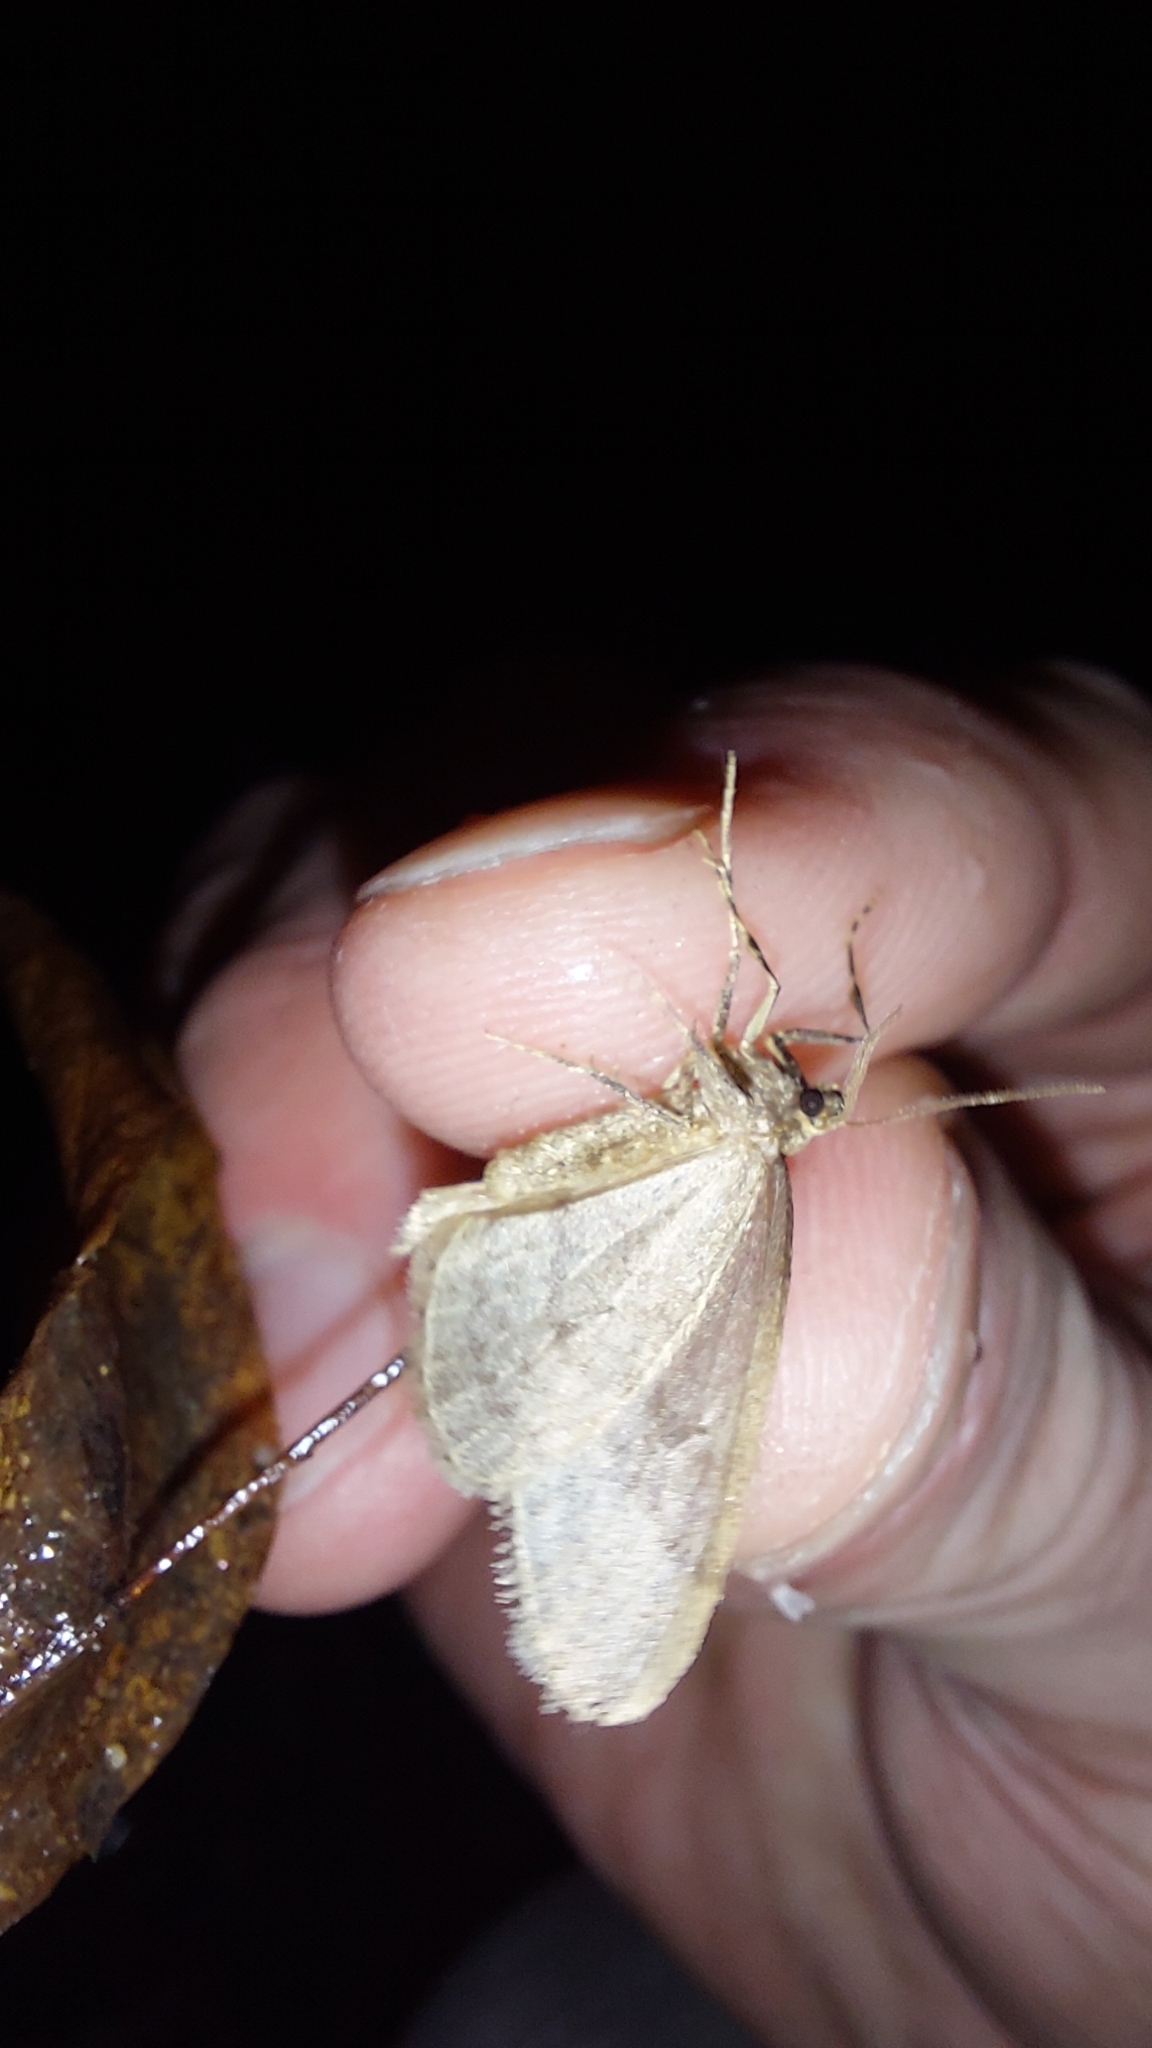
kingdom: Animalia
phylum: Arthropoda
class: Insecta
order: Lepidoptera
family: Geometridae
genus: Operophtera
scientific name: Operophtera brumata
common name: Winter moth
